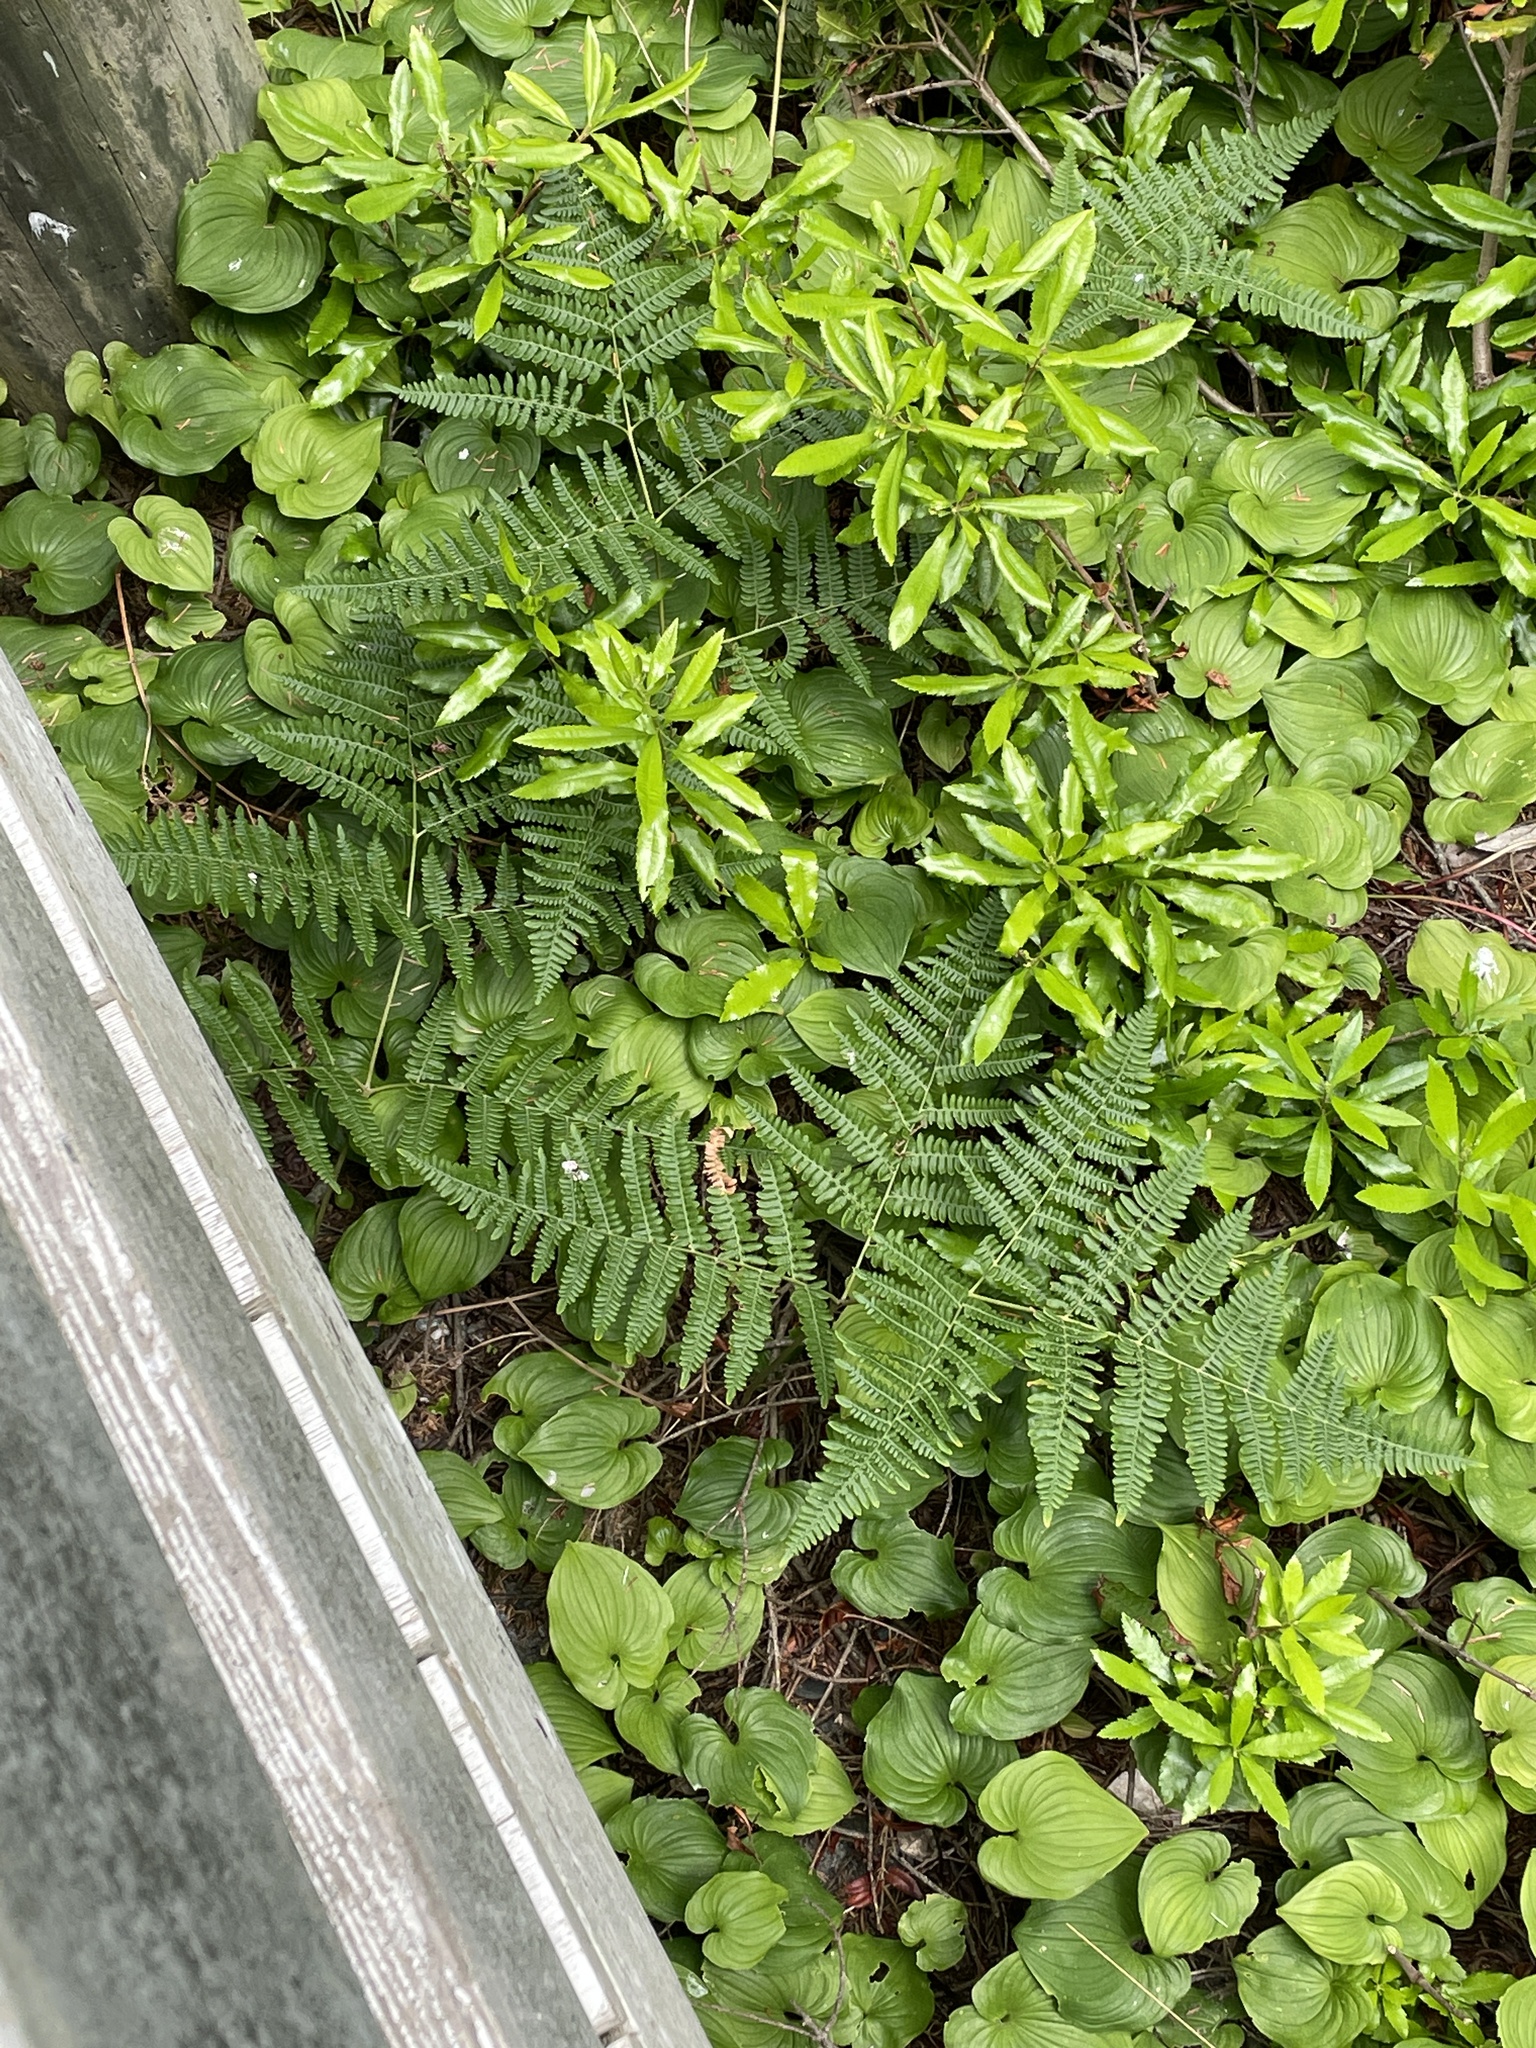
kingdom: Plantae
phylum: Tracheophyta
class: Polypodiopsida
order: Polypodiales
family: Dennstaedtiaceae
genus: Pteridium
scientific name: Pteridium aquilinum
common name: Bracken
